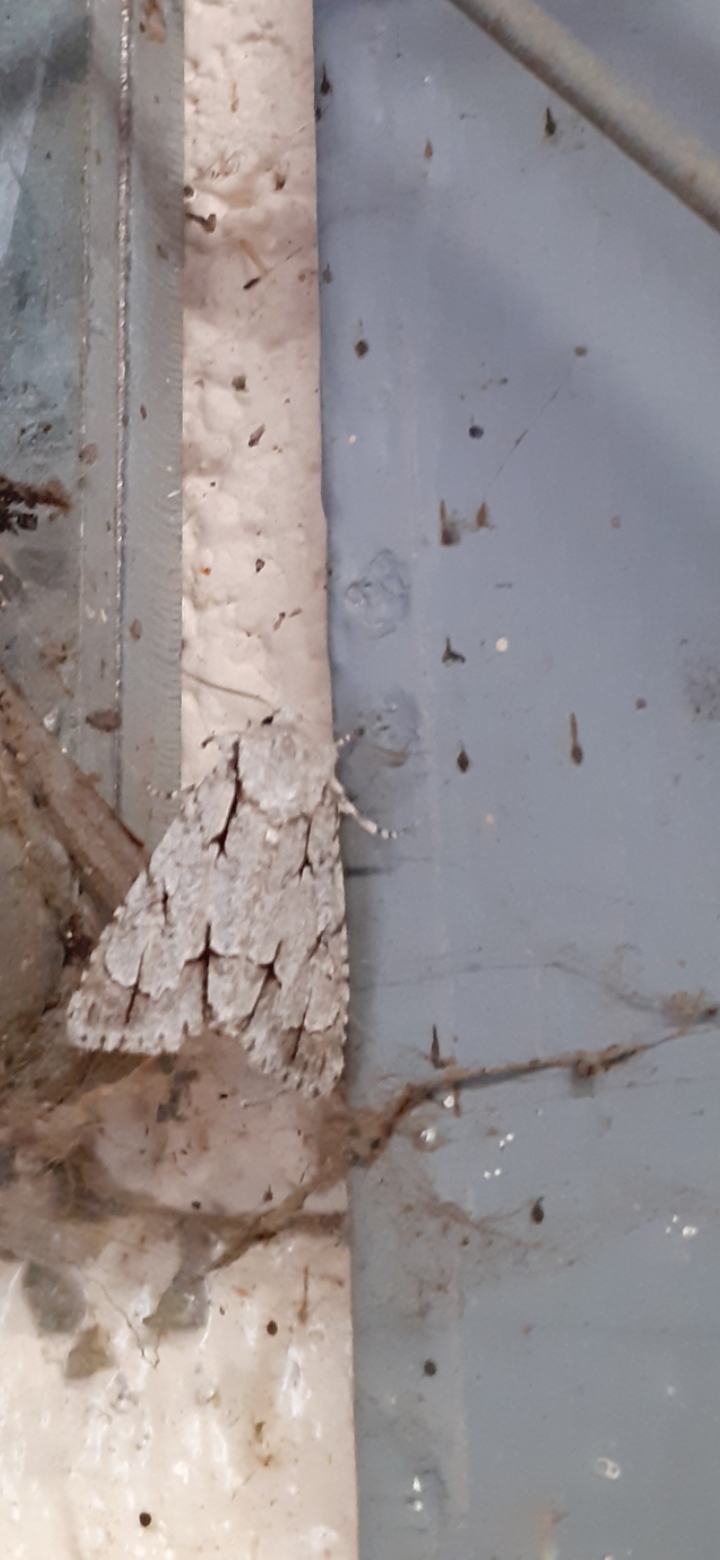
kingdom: Animalia
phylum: Arthropoda
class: Insecta
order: Lepidoptera
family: Noctuidae
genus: Acronicta
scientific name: Acronicta psi
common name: Grey dagger
